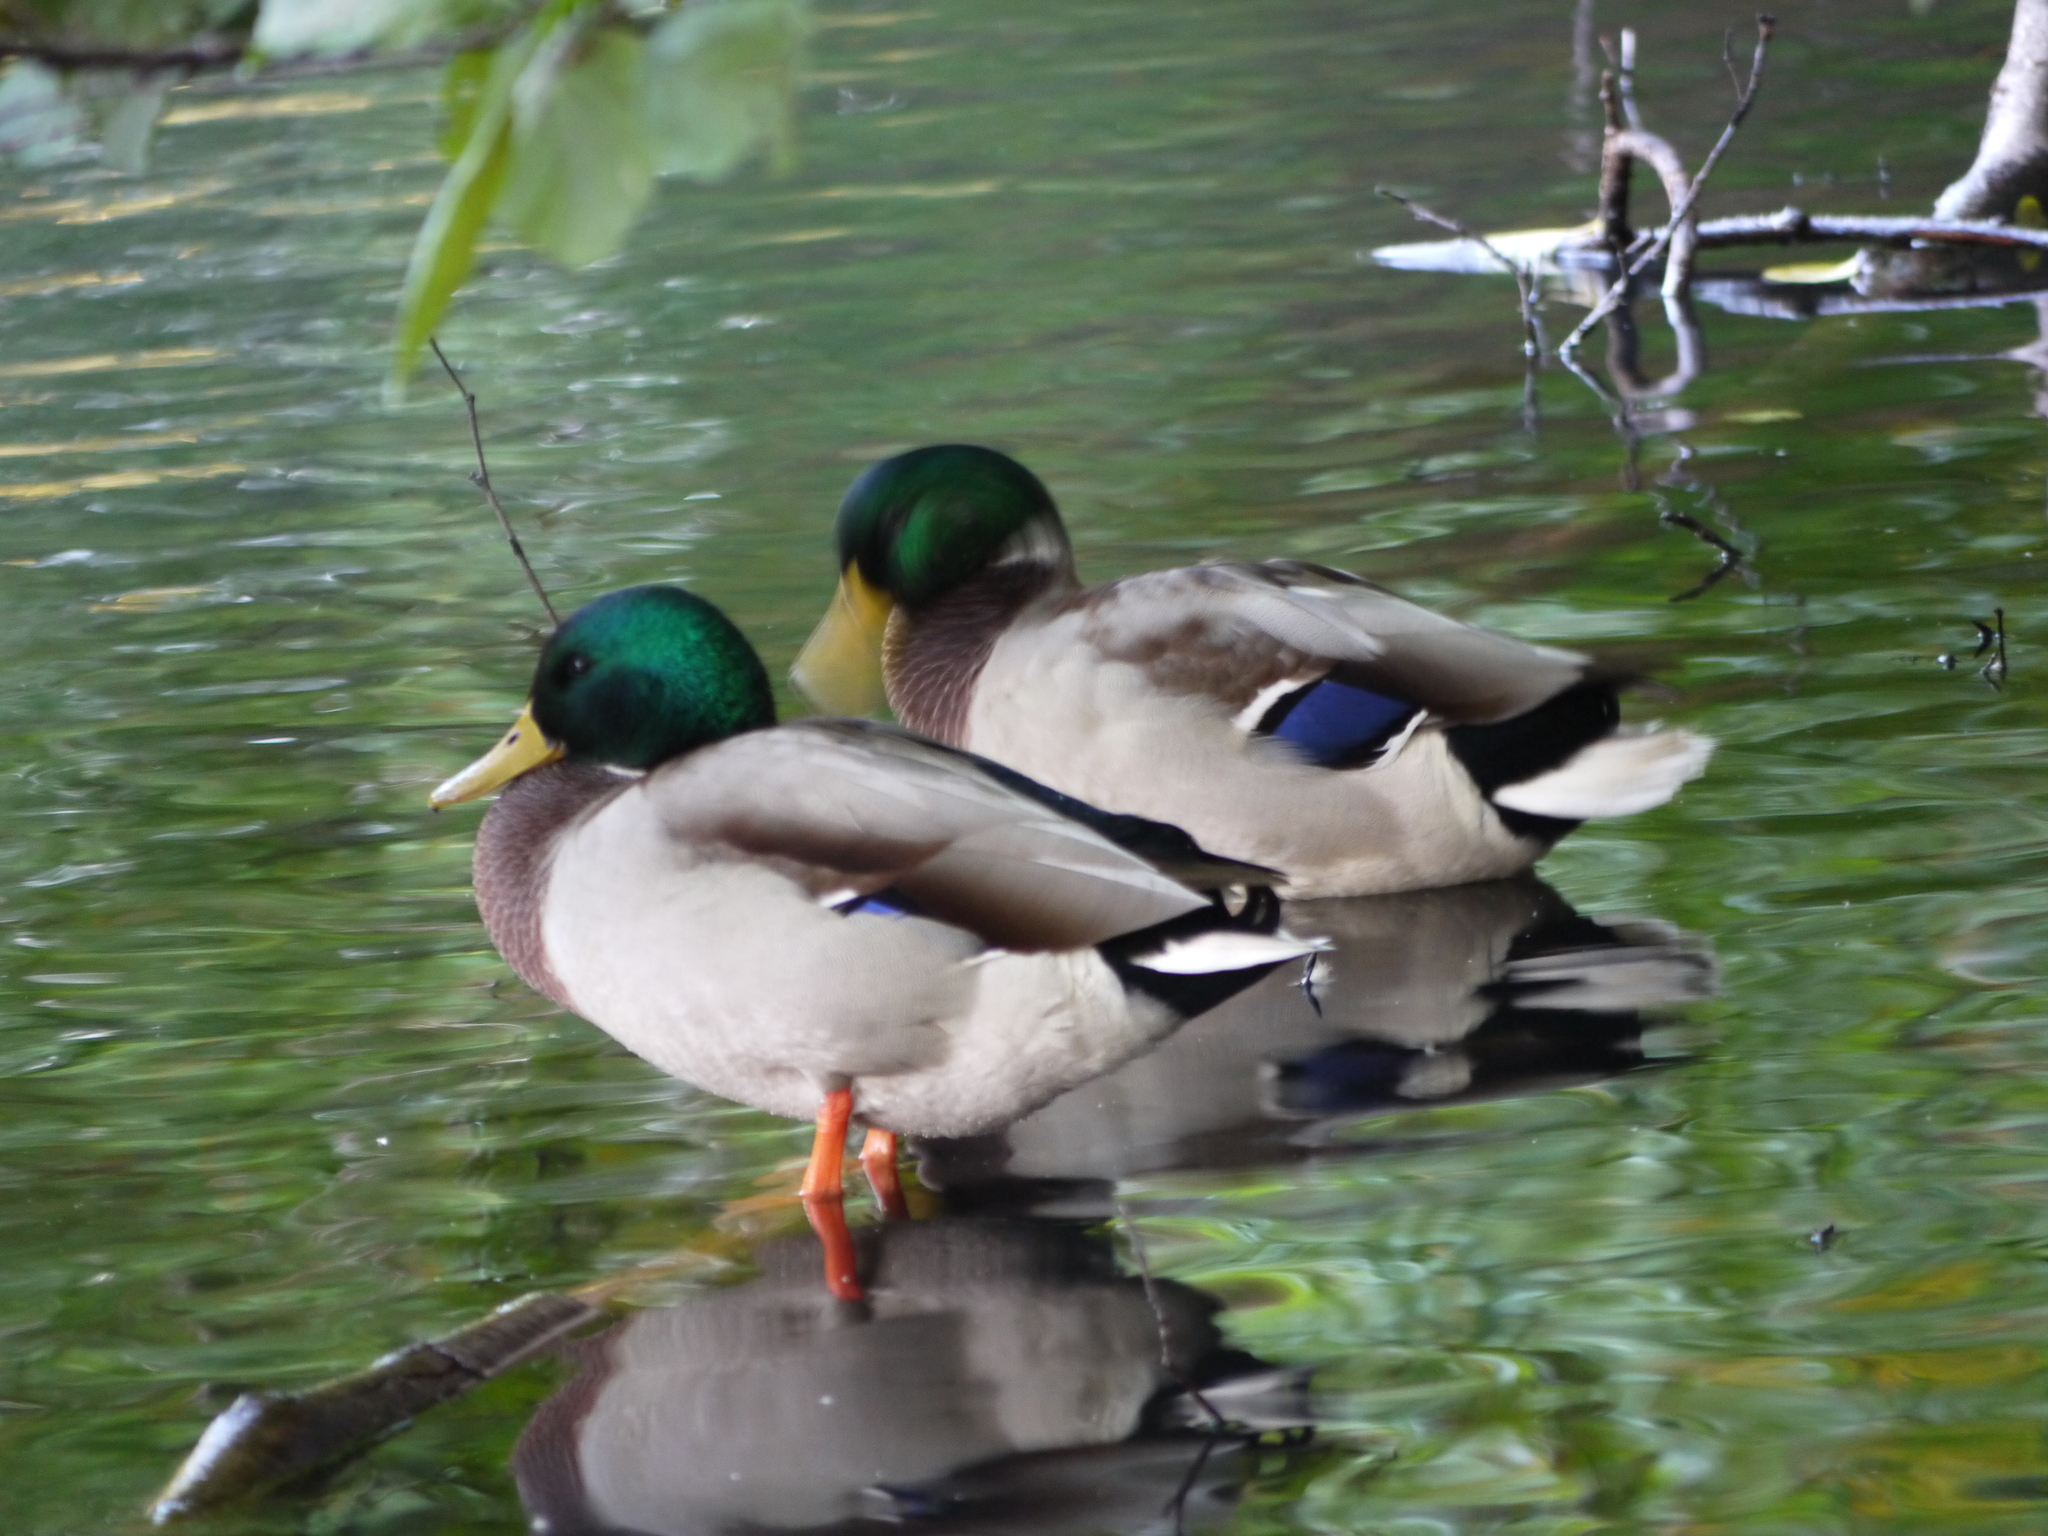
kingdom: Animalia
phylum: Chordata
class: Aves
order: Anseriformes
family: Anatidae
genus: Anas
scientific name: Anas platyrhynchos
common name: Mallard
